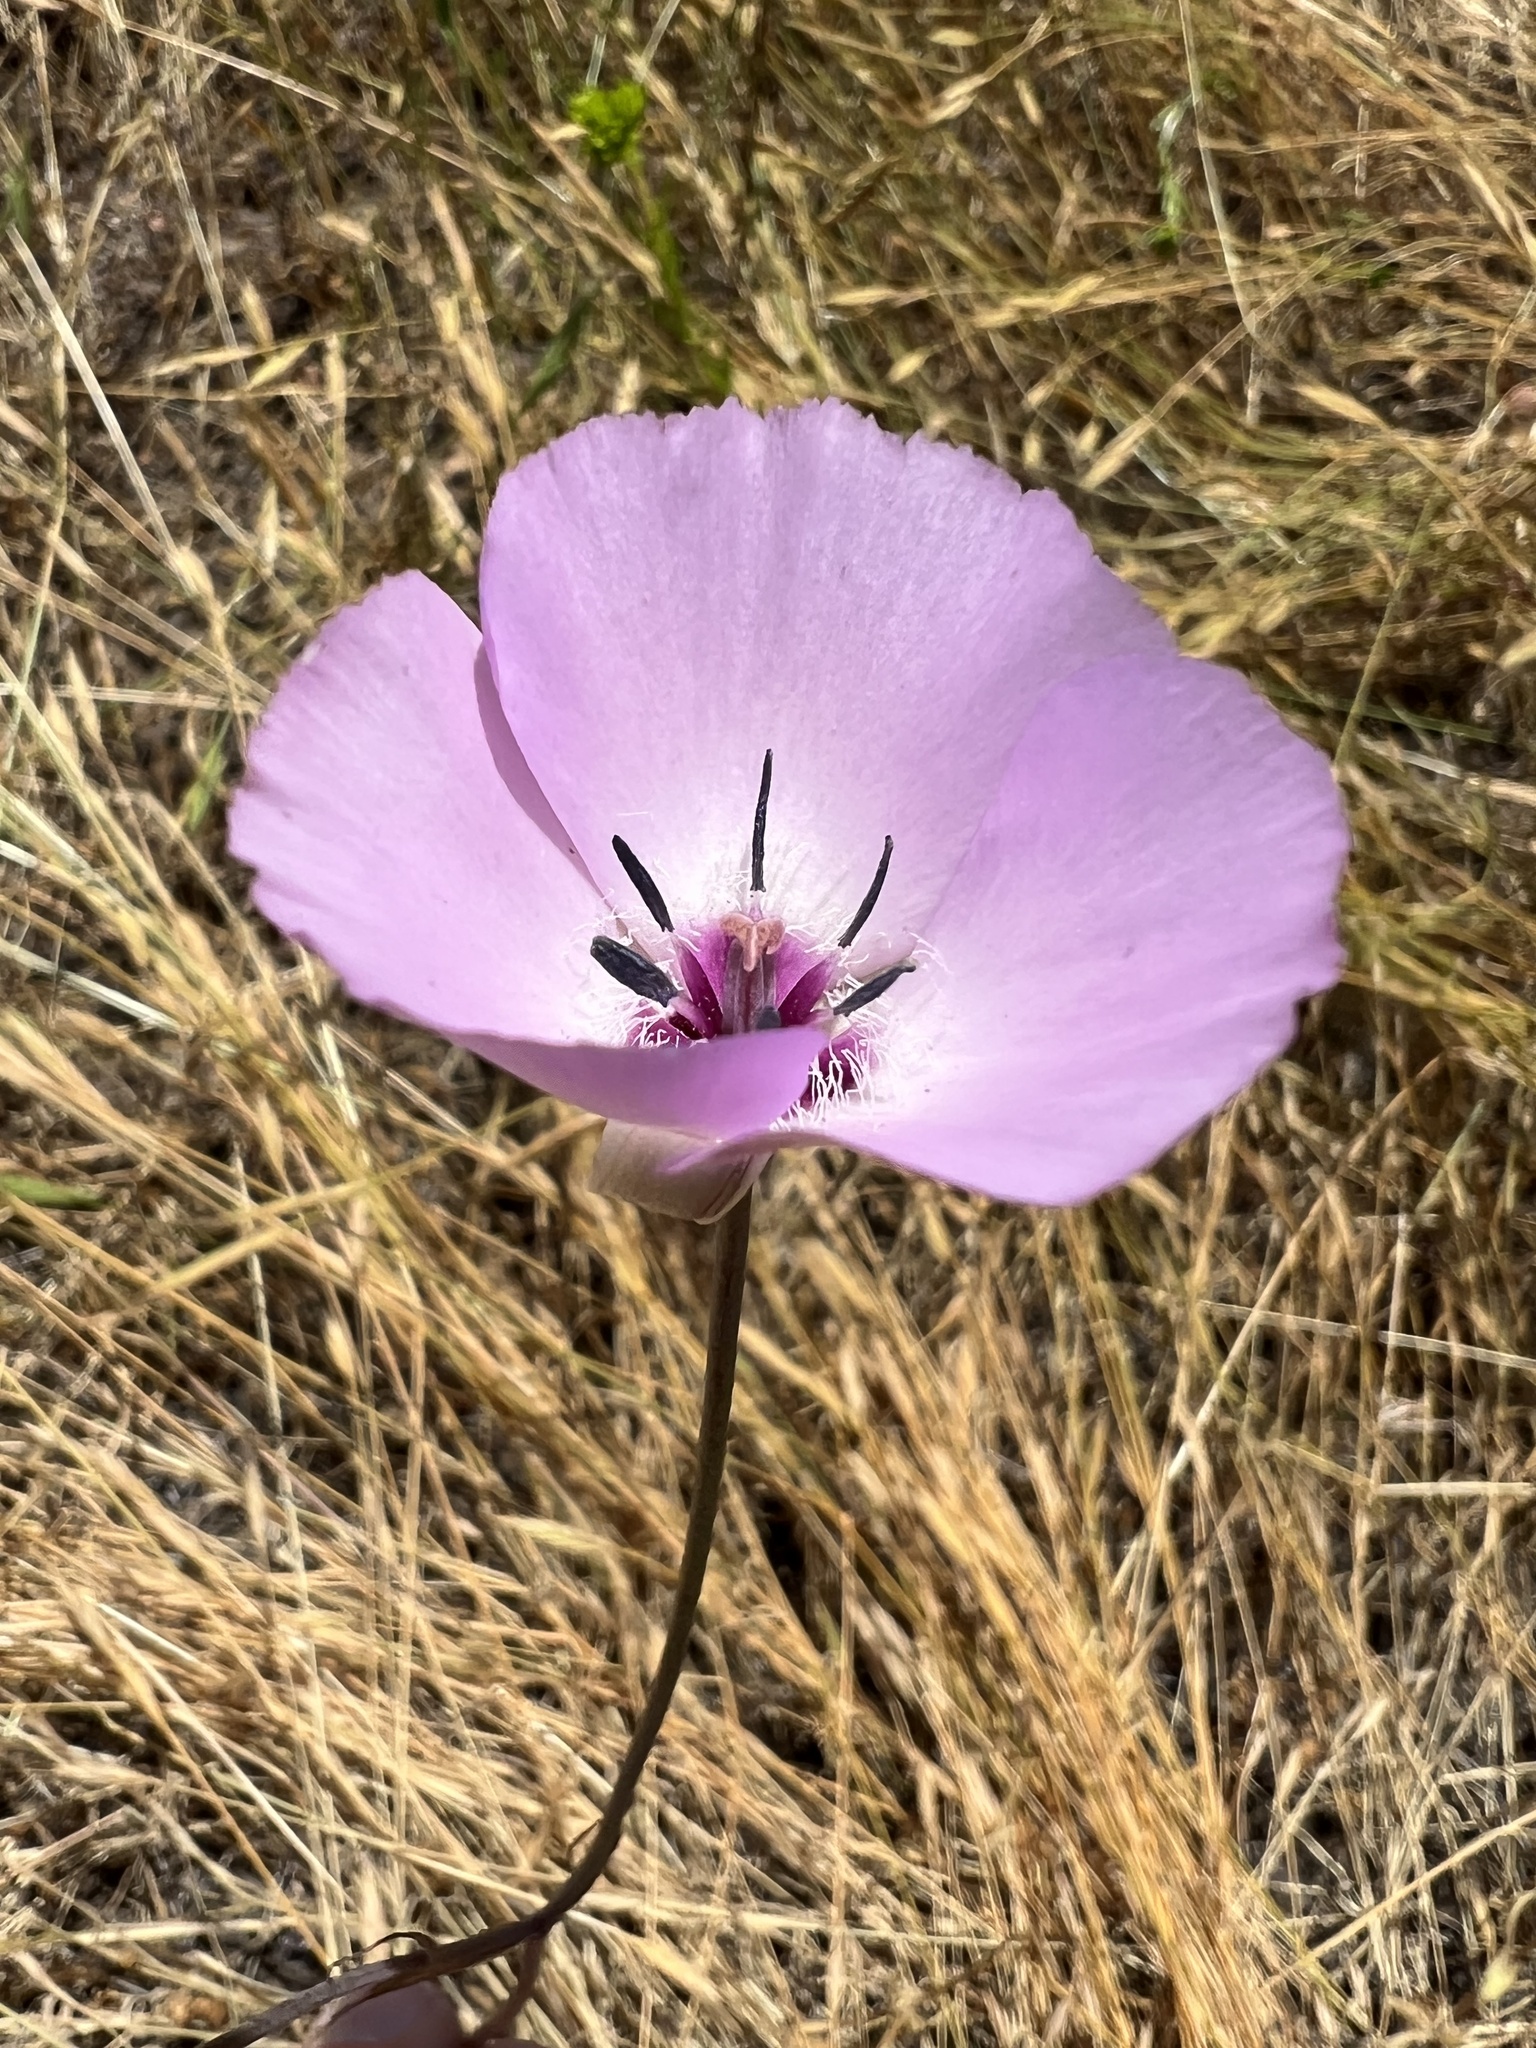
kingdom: Plantae
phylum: Tracheophyta
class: Liliopsida
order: Liliales
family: Liliaceae
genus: Calochortus
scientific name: Calochortus splendens
